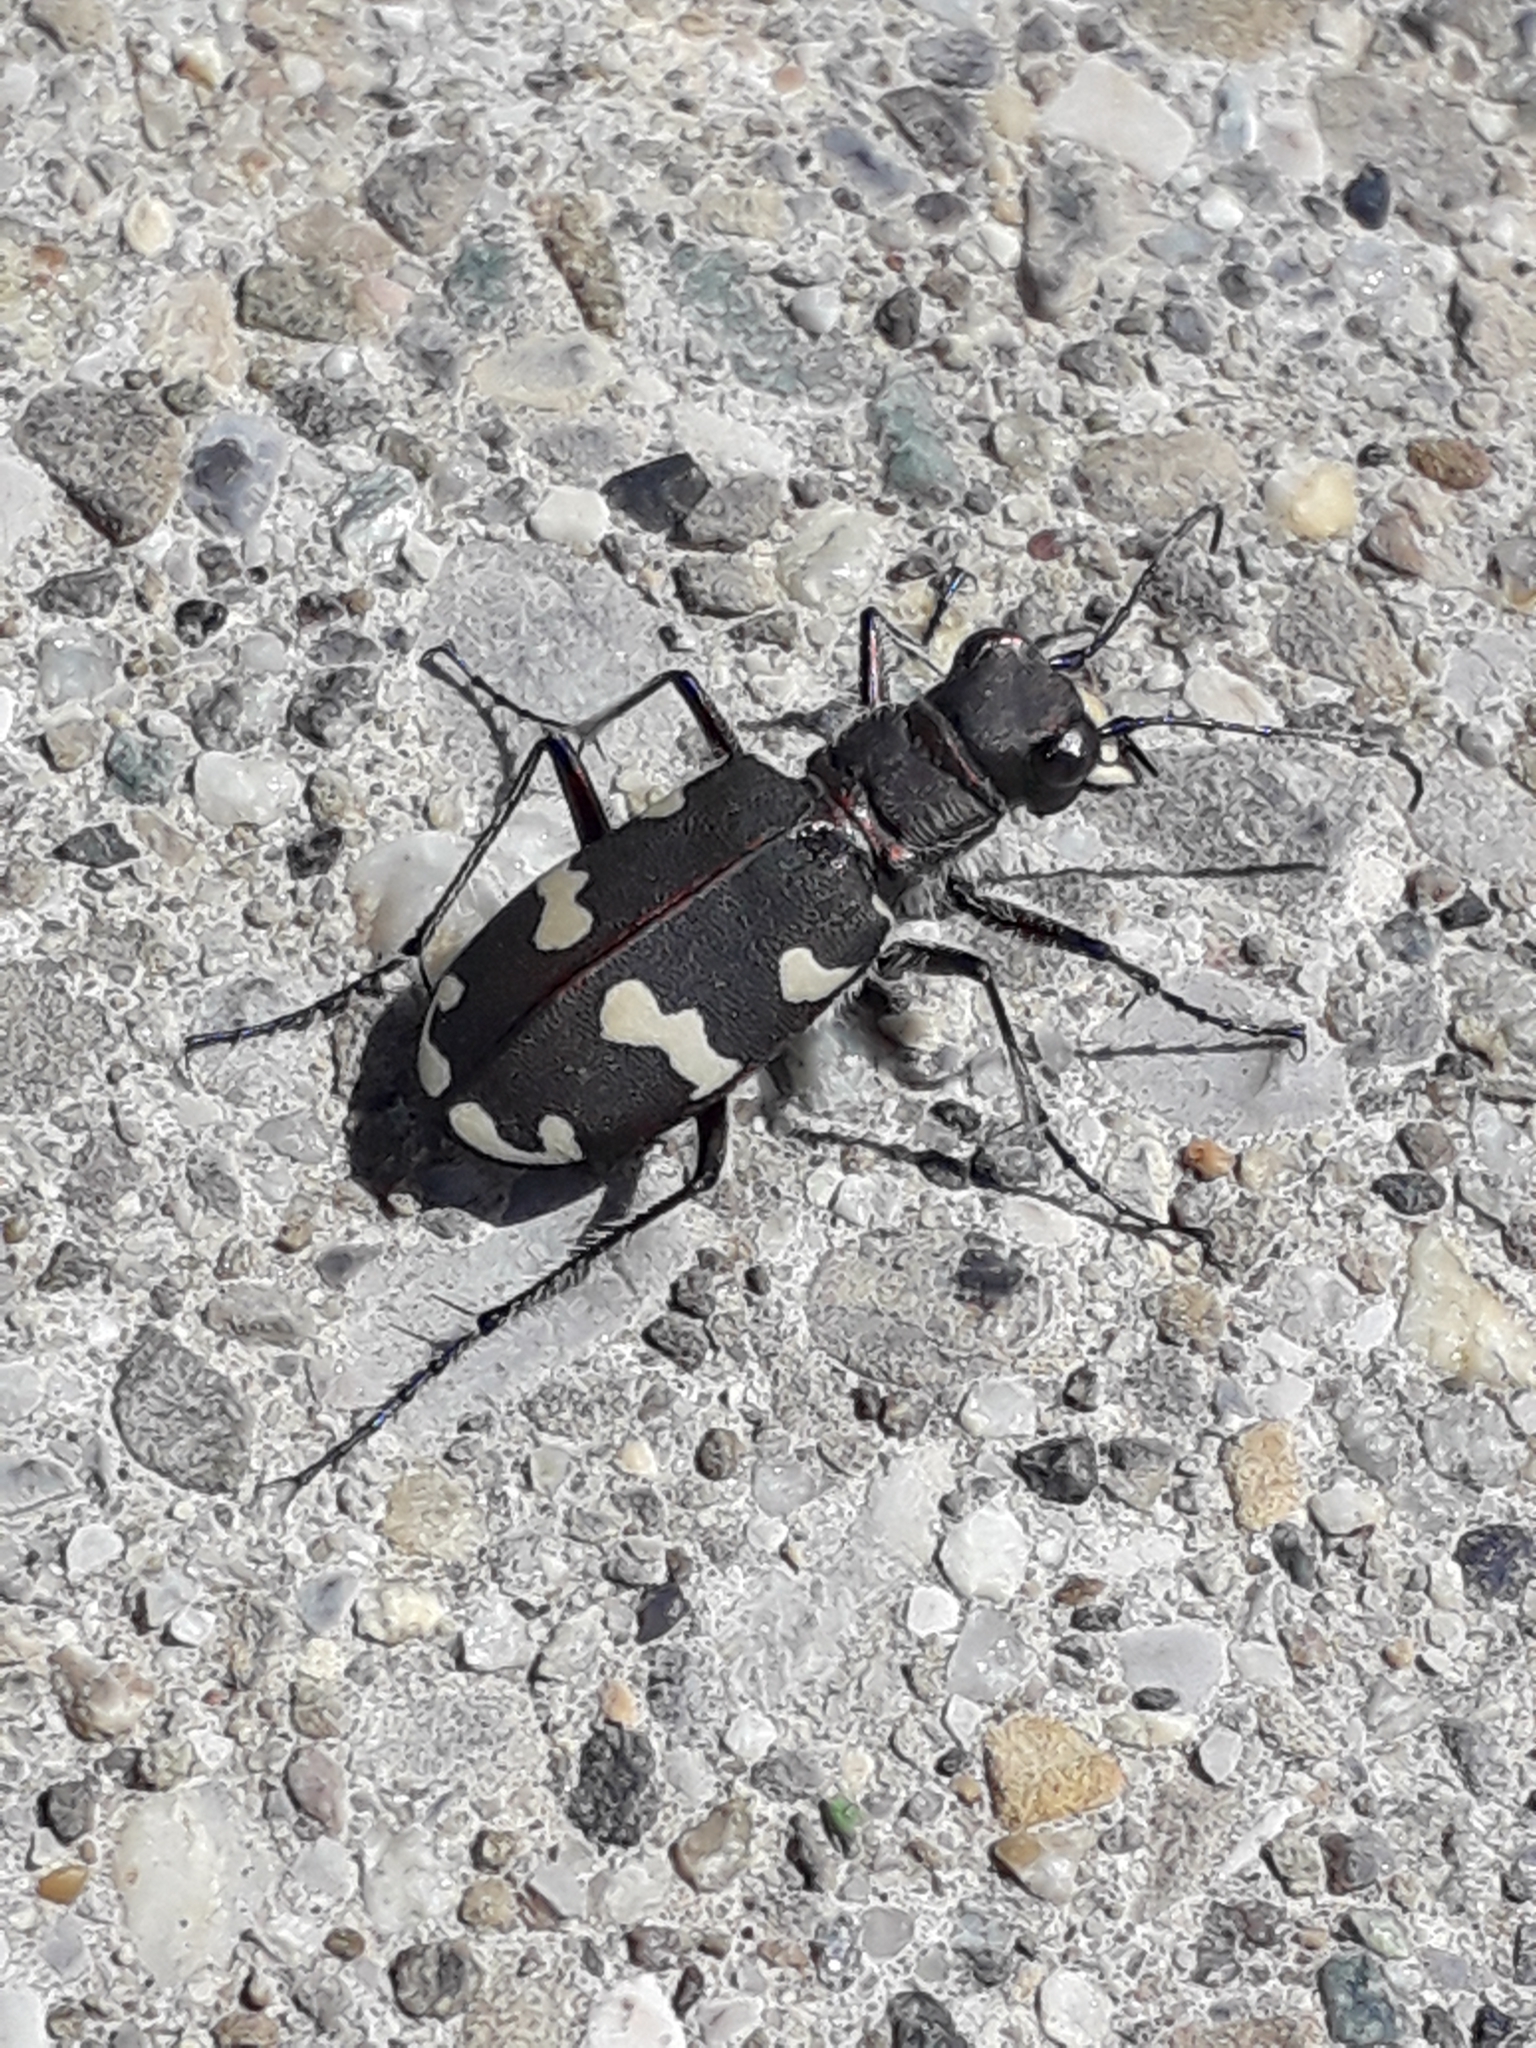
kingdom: Animalia
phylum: Arthropoda
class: Insecta
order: Coleoptera
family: Carabidae
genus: Cicindela
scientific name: Cicindela hybrida
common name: Northern dune tiger beetle
